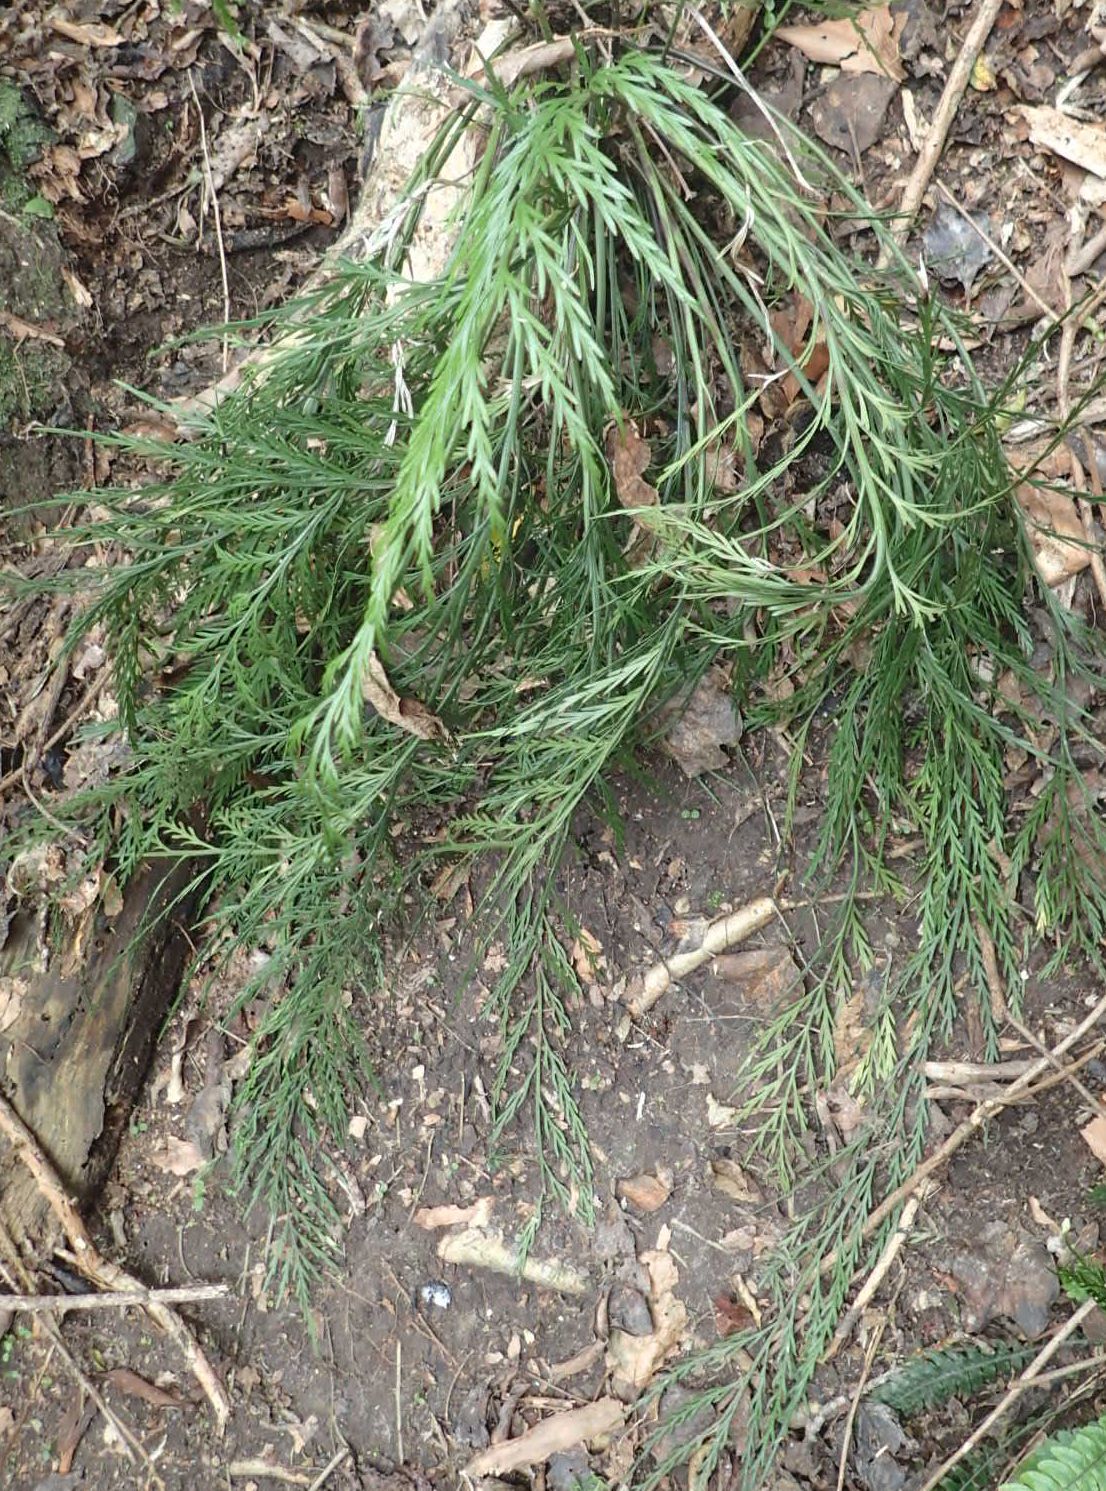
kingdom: Plantae
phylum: Tracheophyta
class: Polypodiopsida
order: Polypodiales
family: Aspleniaceae
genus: Asplenium
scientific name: Asplenium flaccidum
